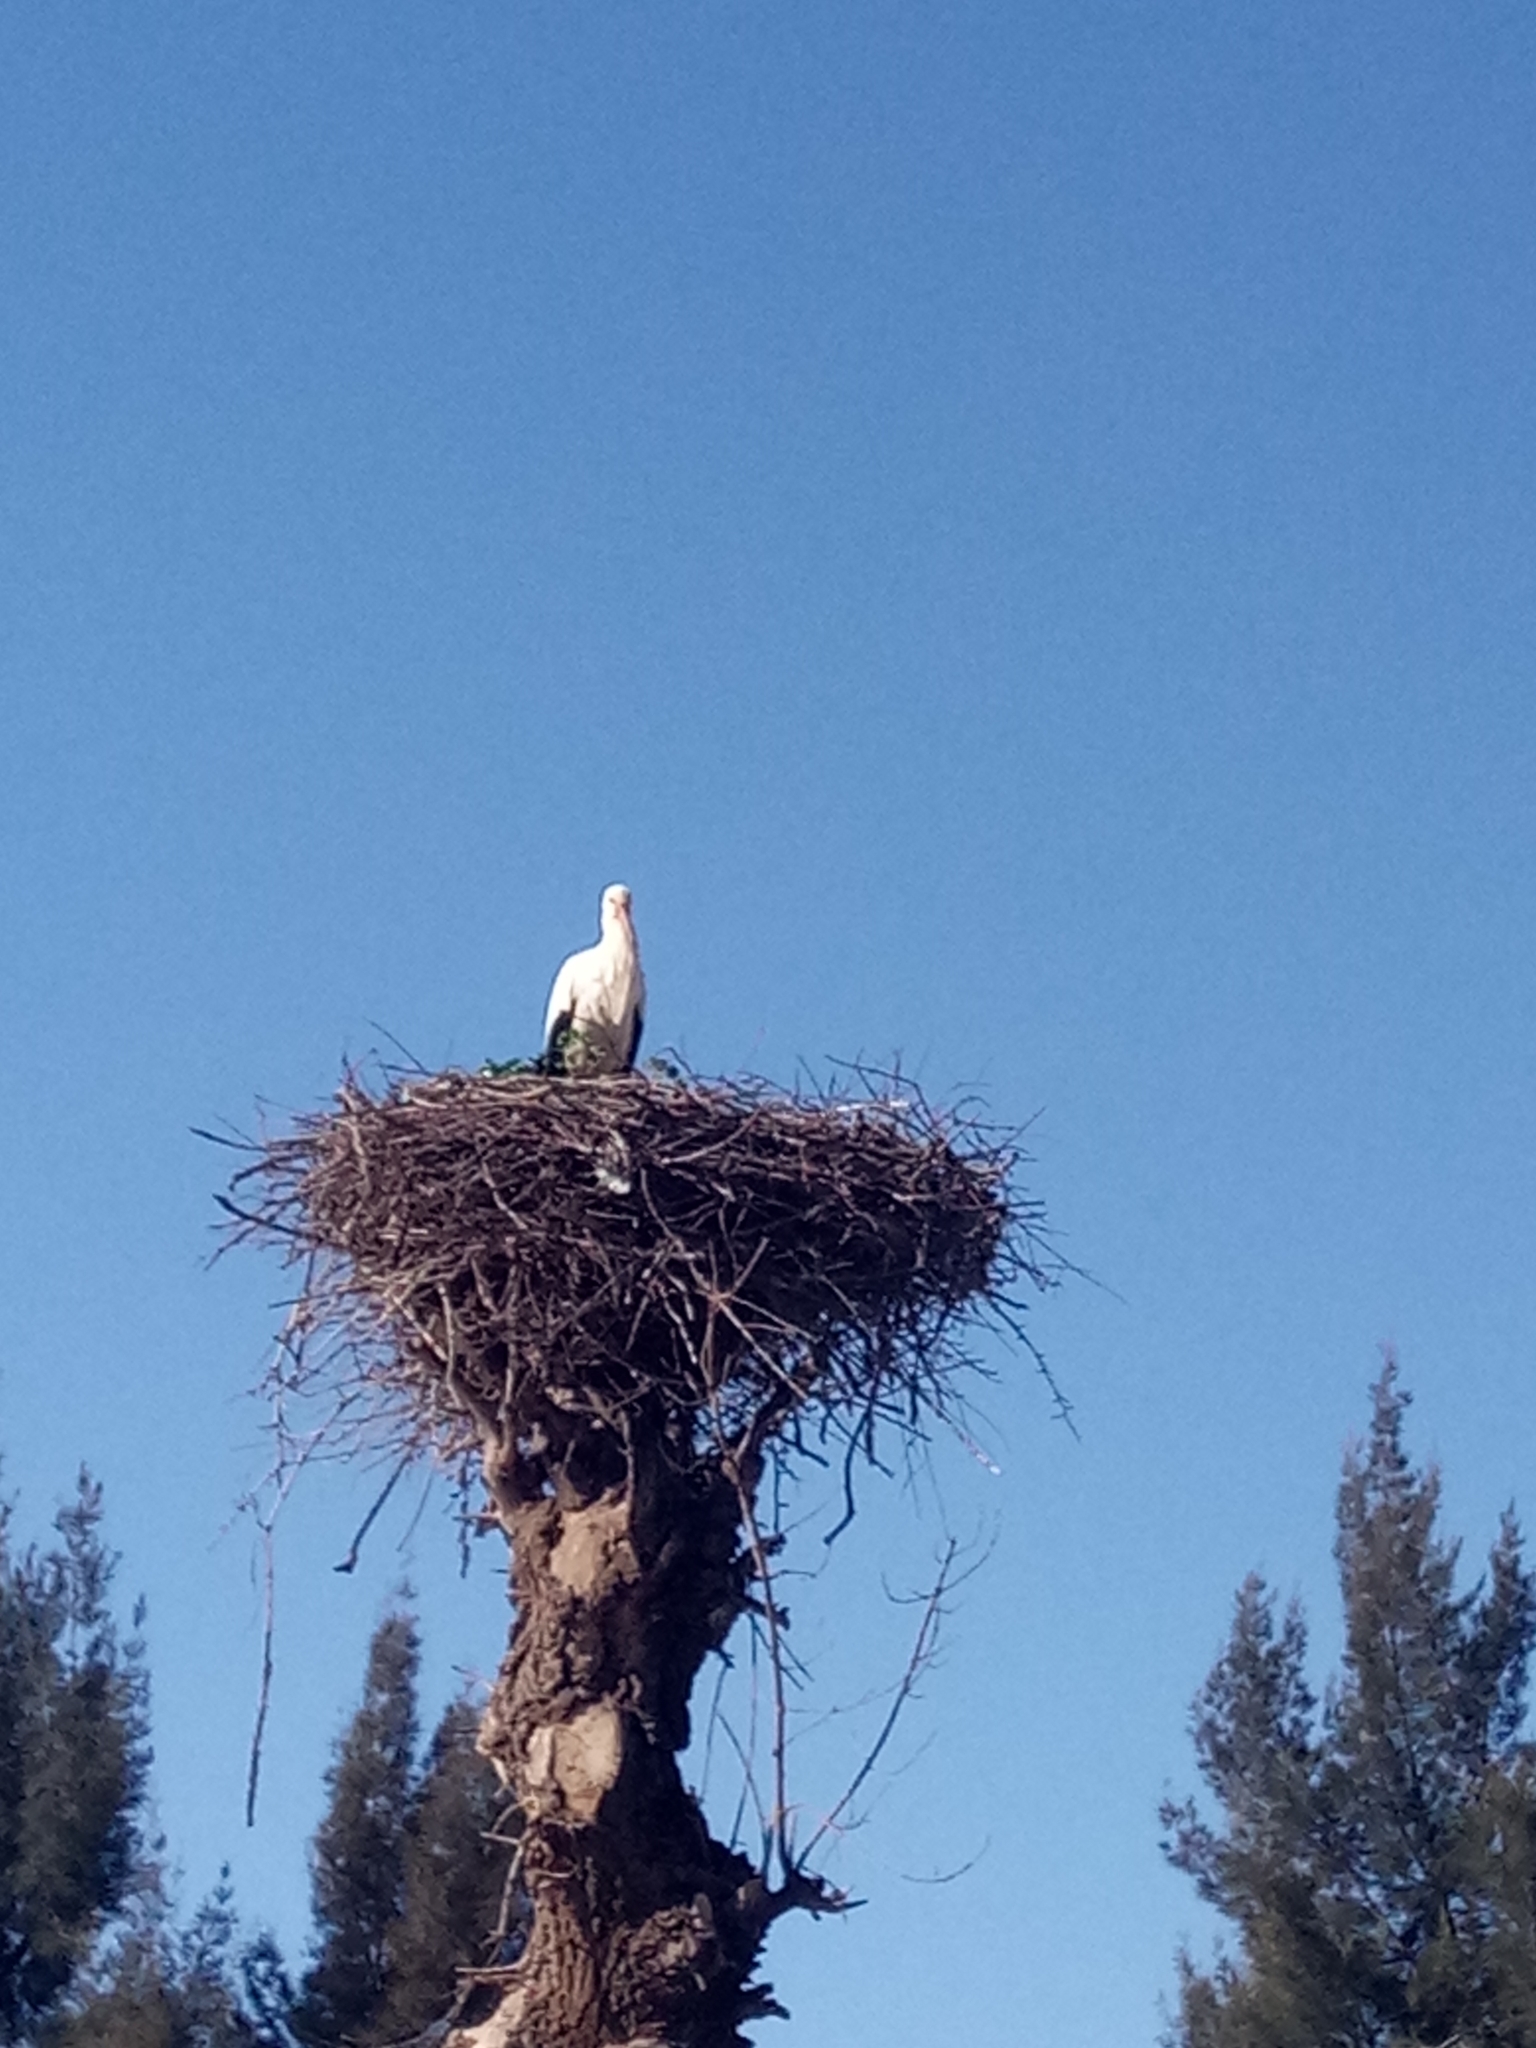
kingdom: Animalia
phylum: Chordata
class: Aves
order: Ciconiiformes
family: Ciconiidae
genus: Ciconia
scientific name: Ciconia ciconia
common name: White stork
